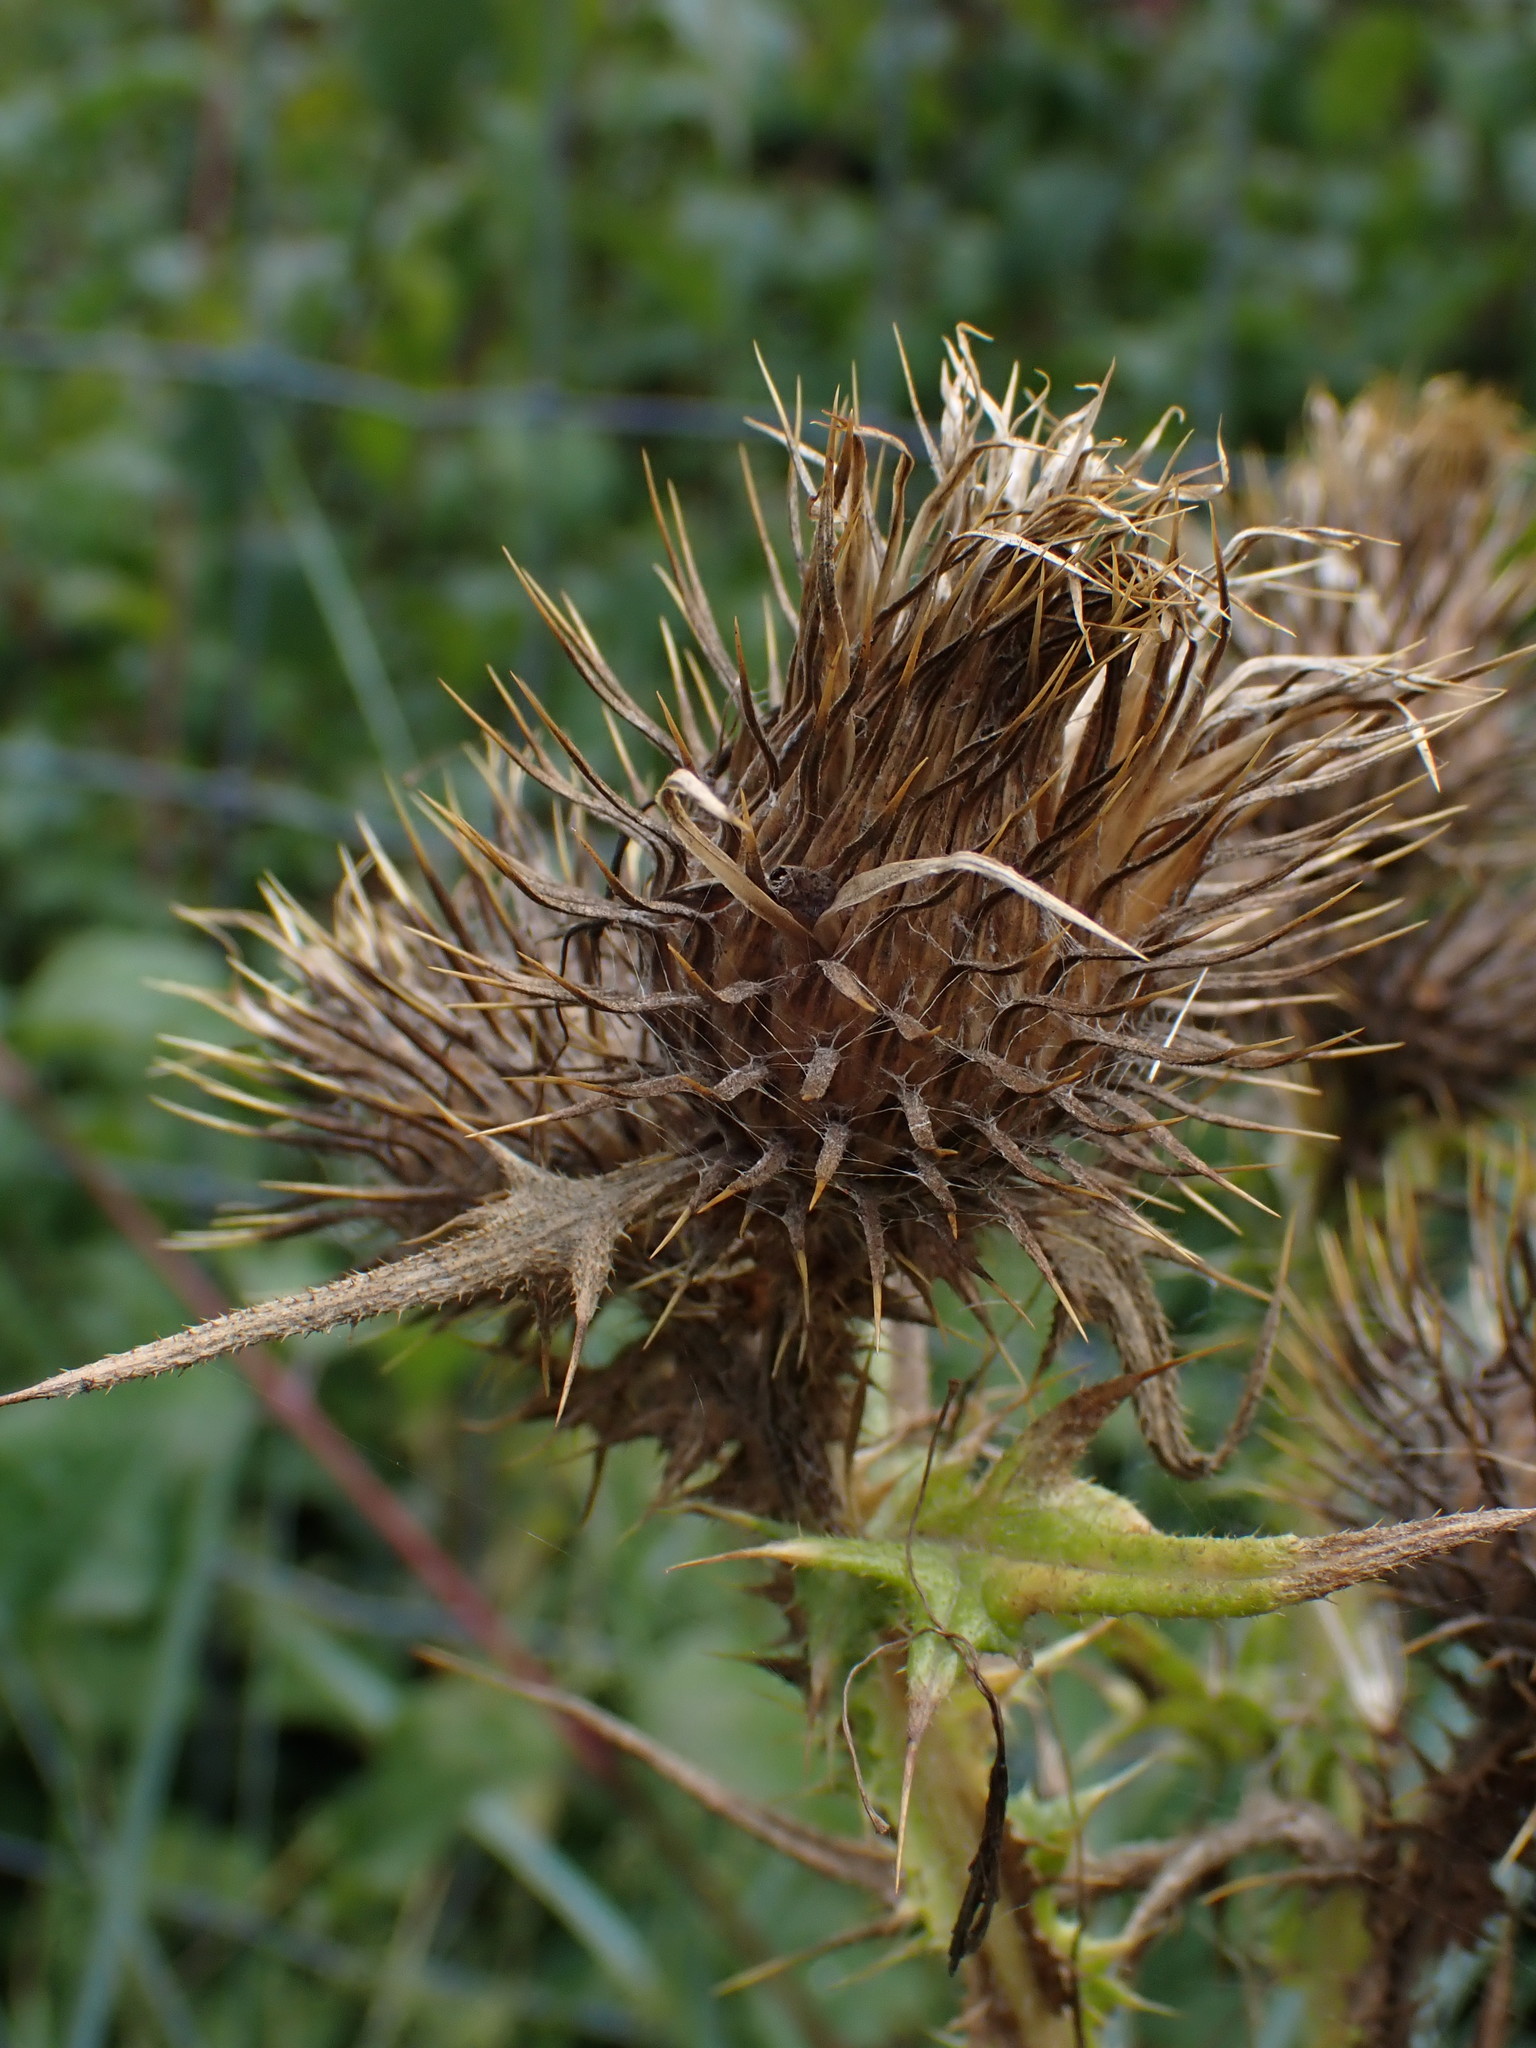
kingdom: Plantae
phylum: Tracheophyta
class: Magnoliopsida
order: Asterales
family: Asteraceae
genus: Cirsium
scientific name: Cirsium vulgare
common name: Bull thistle
